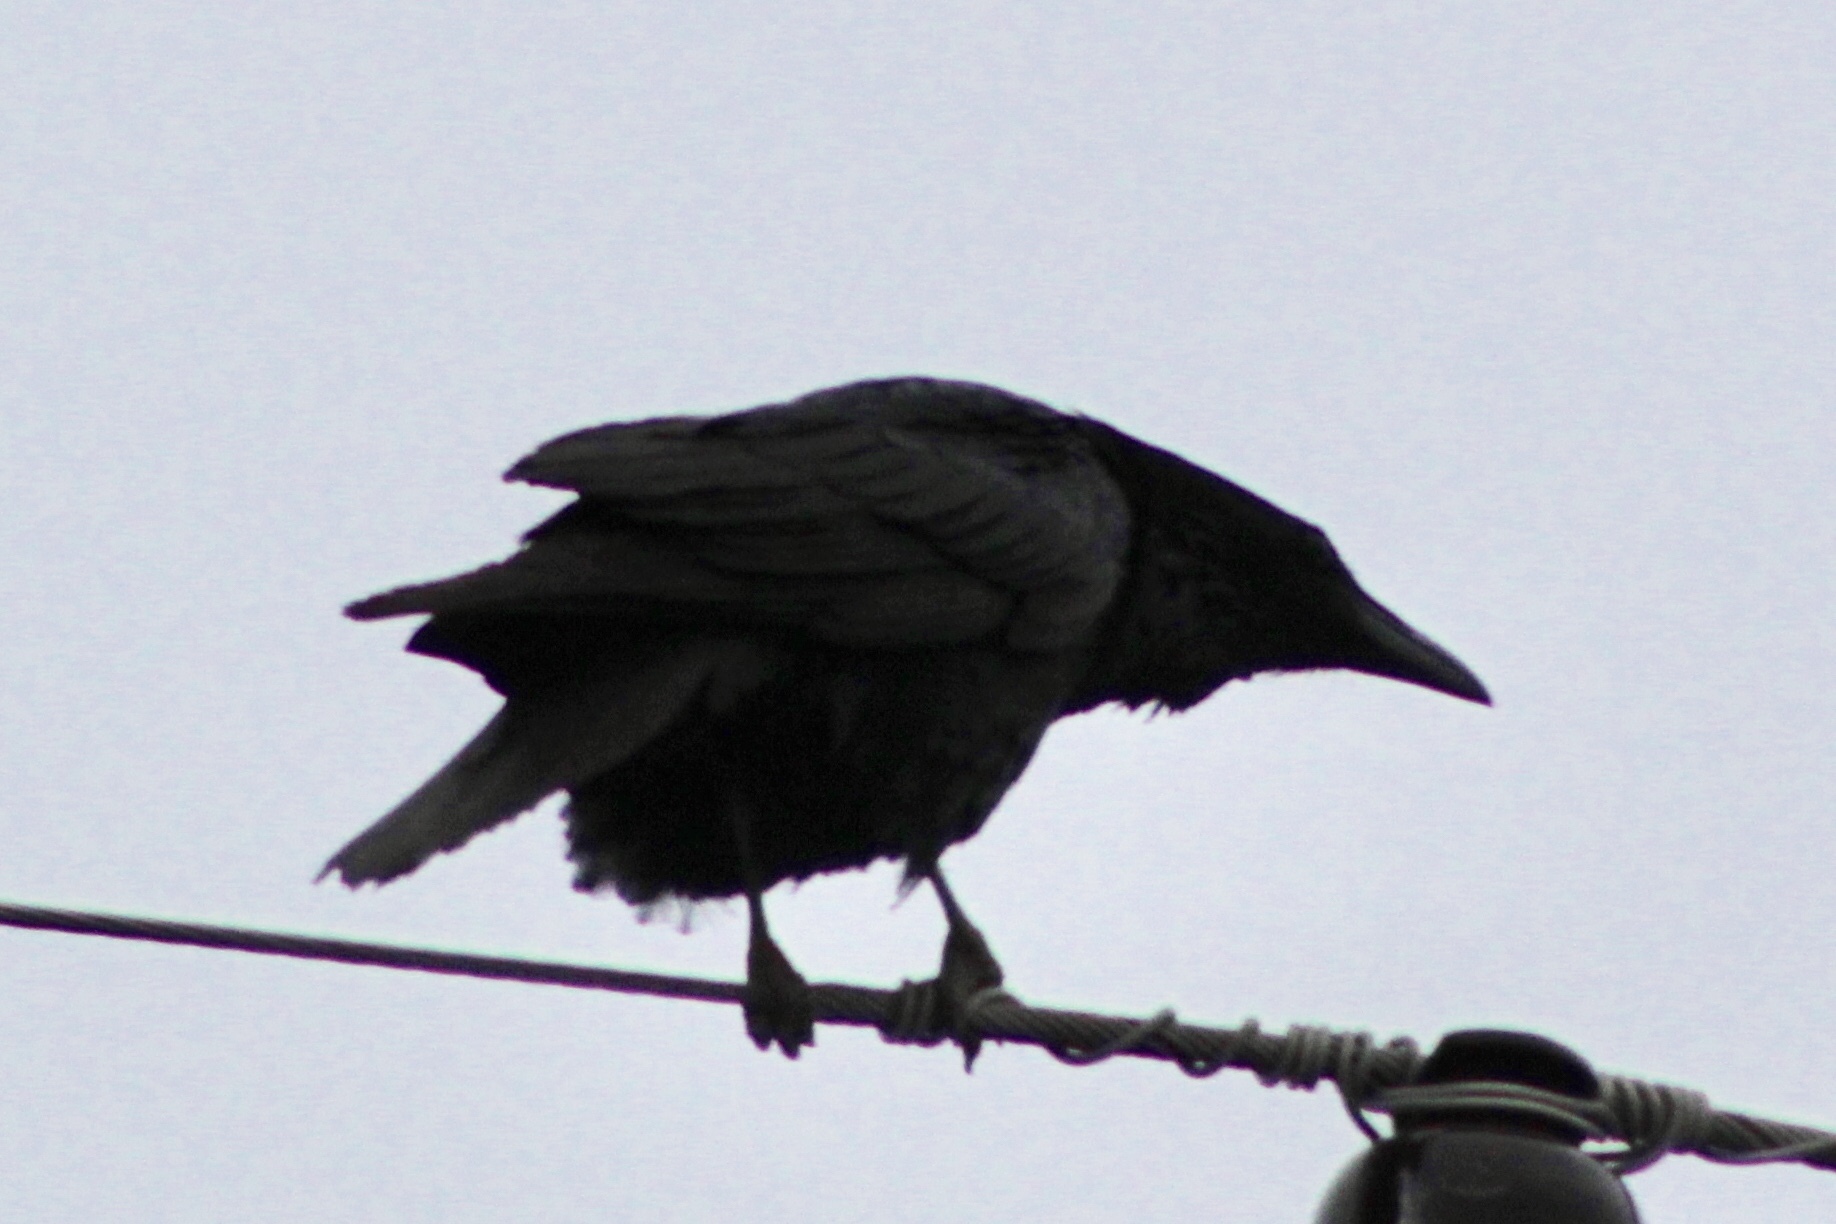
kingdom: Animalia
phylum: Chordata
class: Aves
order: Passeriformes
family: Corvidae
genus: Corvus
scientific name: Corvus corax
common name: Common raven
